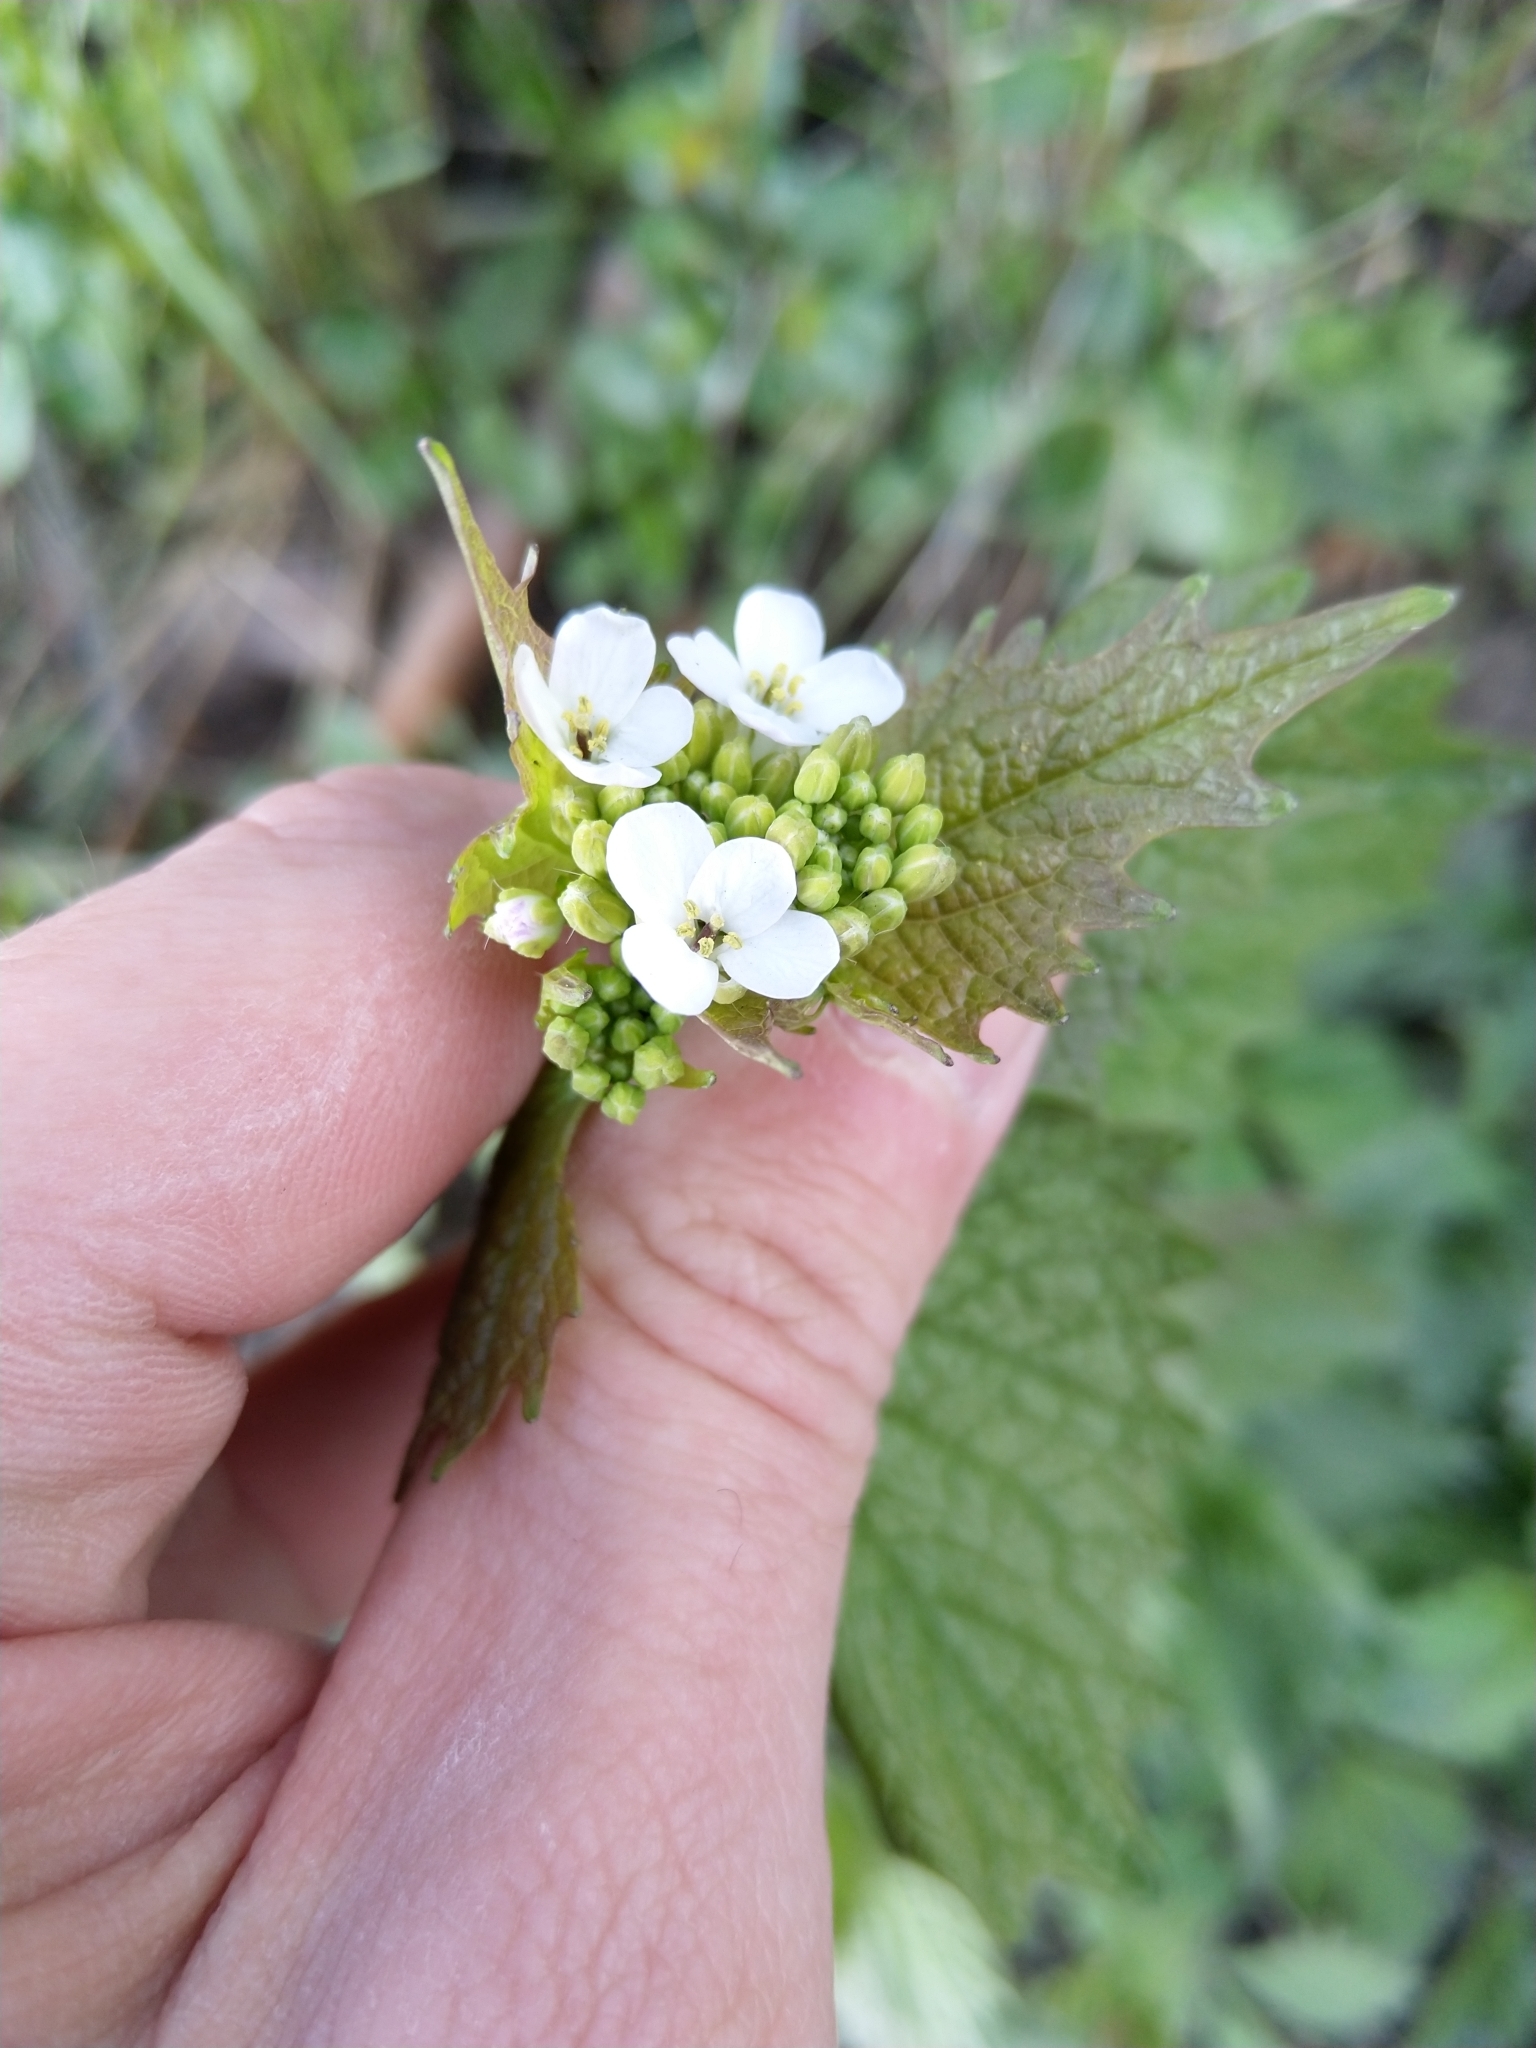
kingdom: Plantae
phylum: Tracheophyta
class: Magnoliopsida
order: Brassicales
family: Brassicaceae
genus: Alliaria
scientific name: Alliaria petiolata
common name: Garlic mustard
